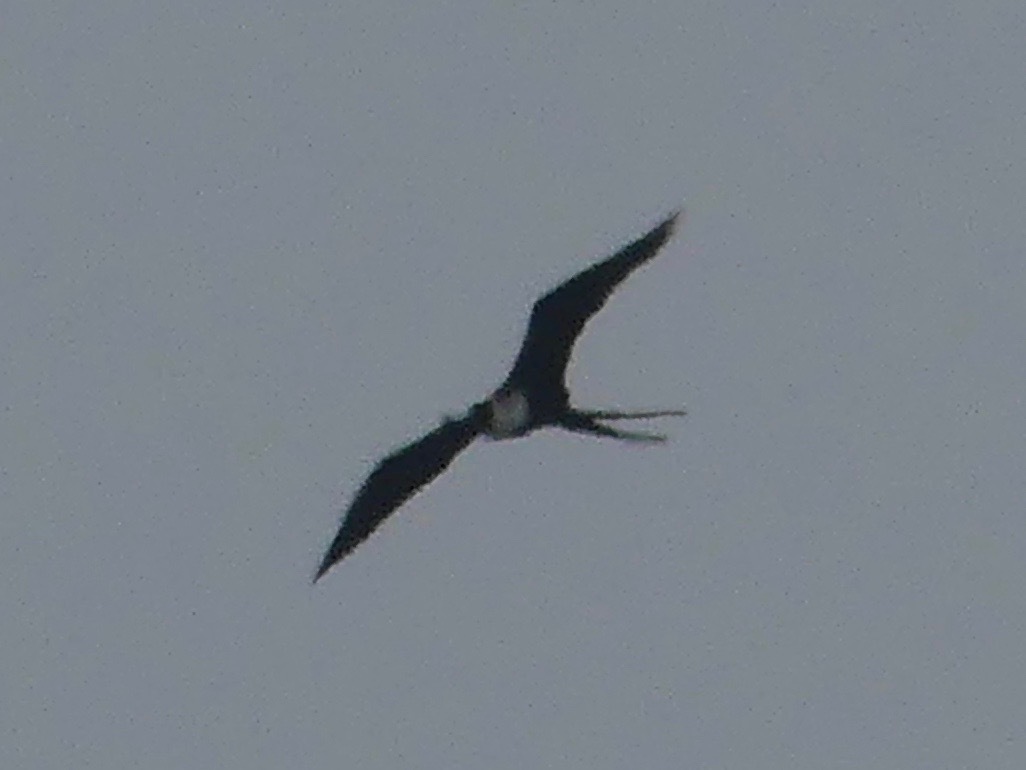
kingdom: Animalia
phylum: Chordata
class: Aves
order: Suliformes
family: Fregatidae
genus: Fregata
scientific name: Fregata magnificens
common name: Magnificent frigatebird
